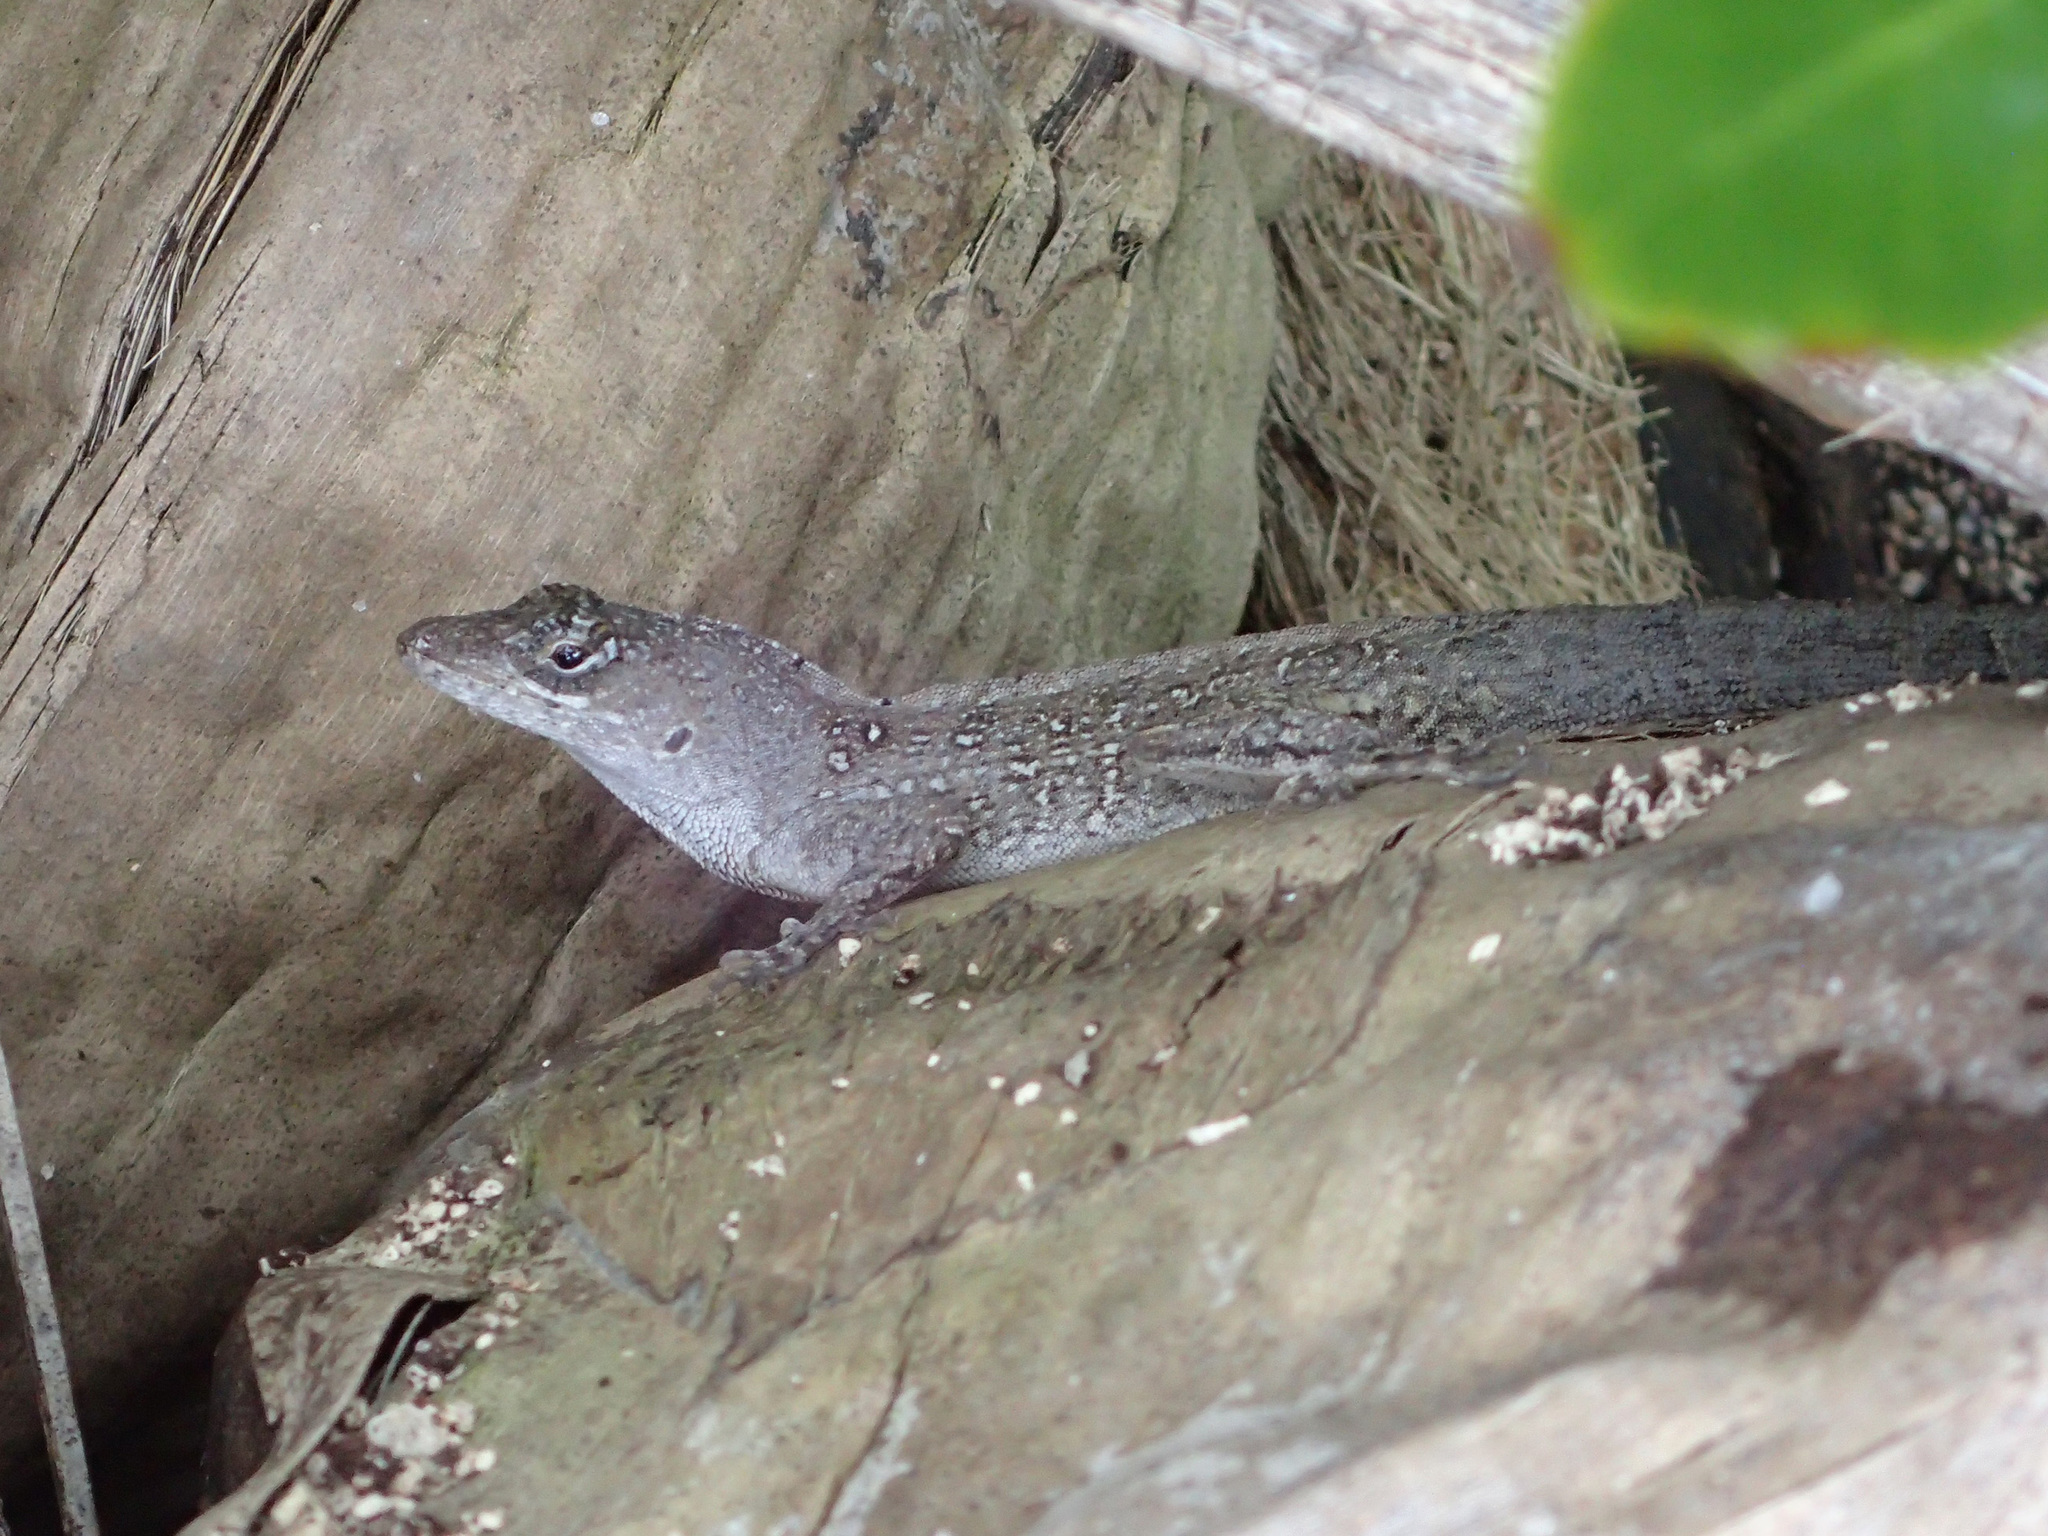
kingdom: Animalia
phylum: Chordata
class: Squamata
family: Dactyloidae
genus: Anolis
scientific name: Anolis sagrei
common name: Brown anole
